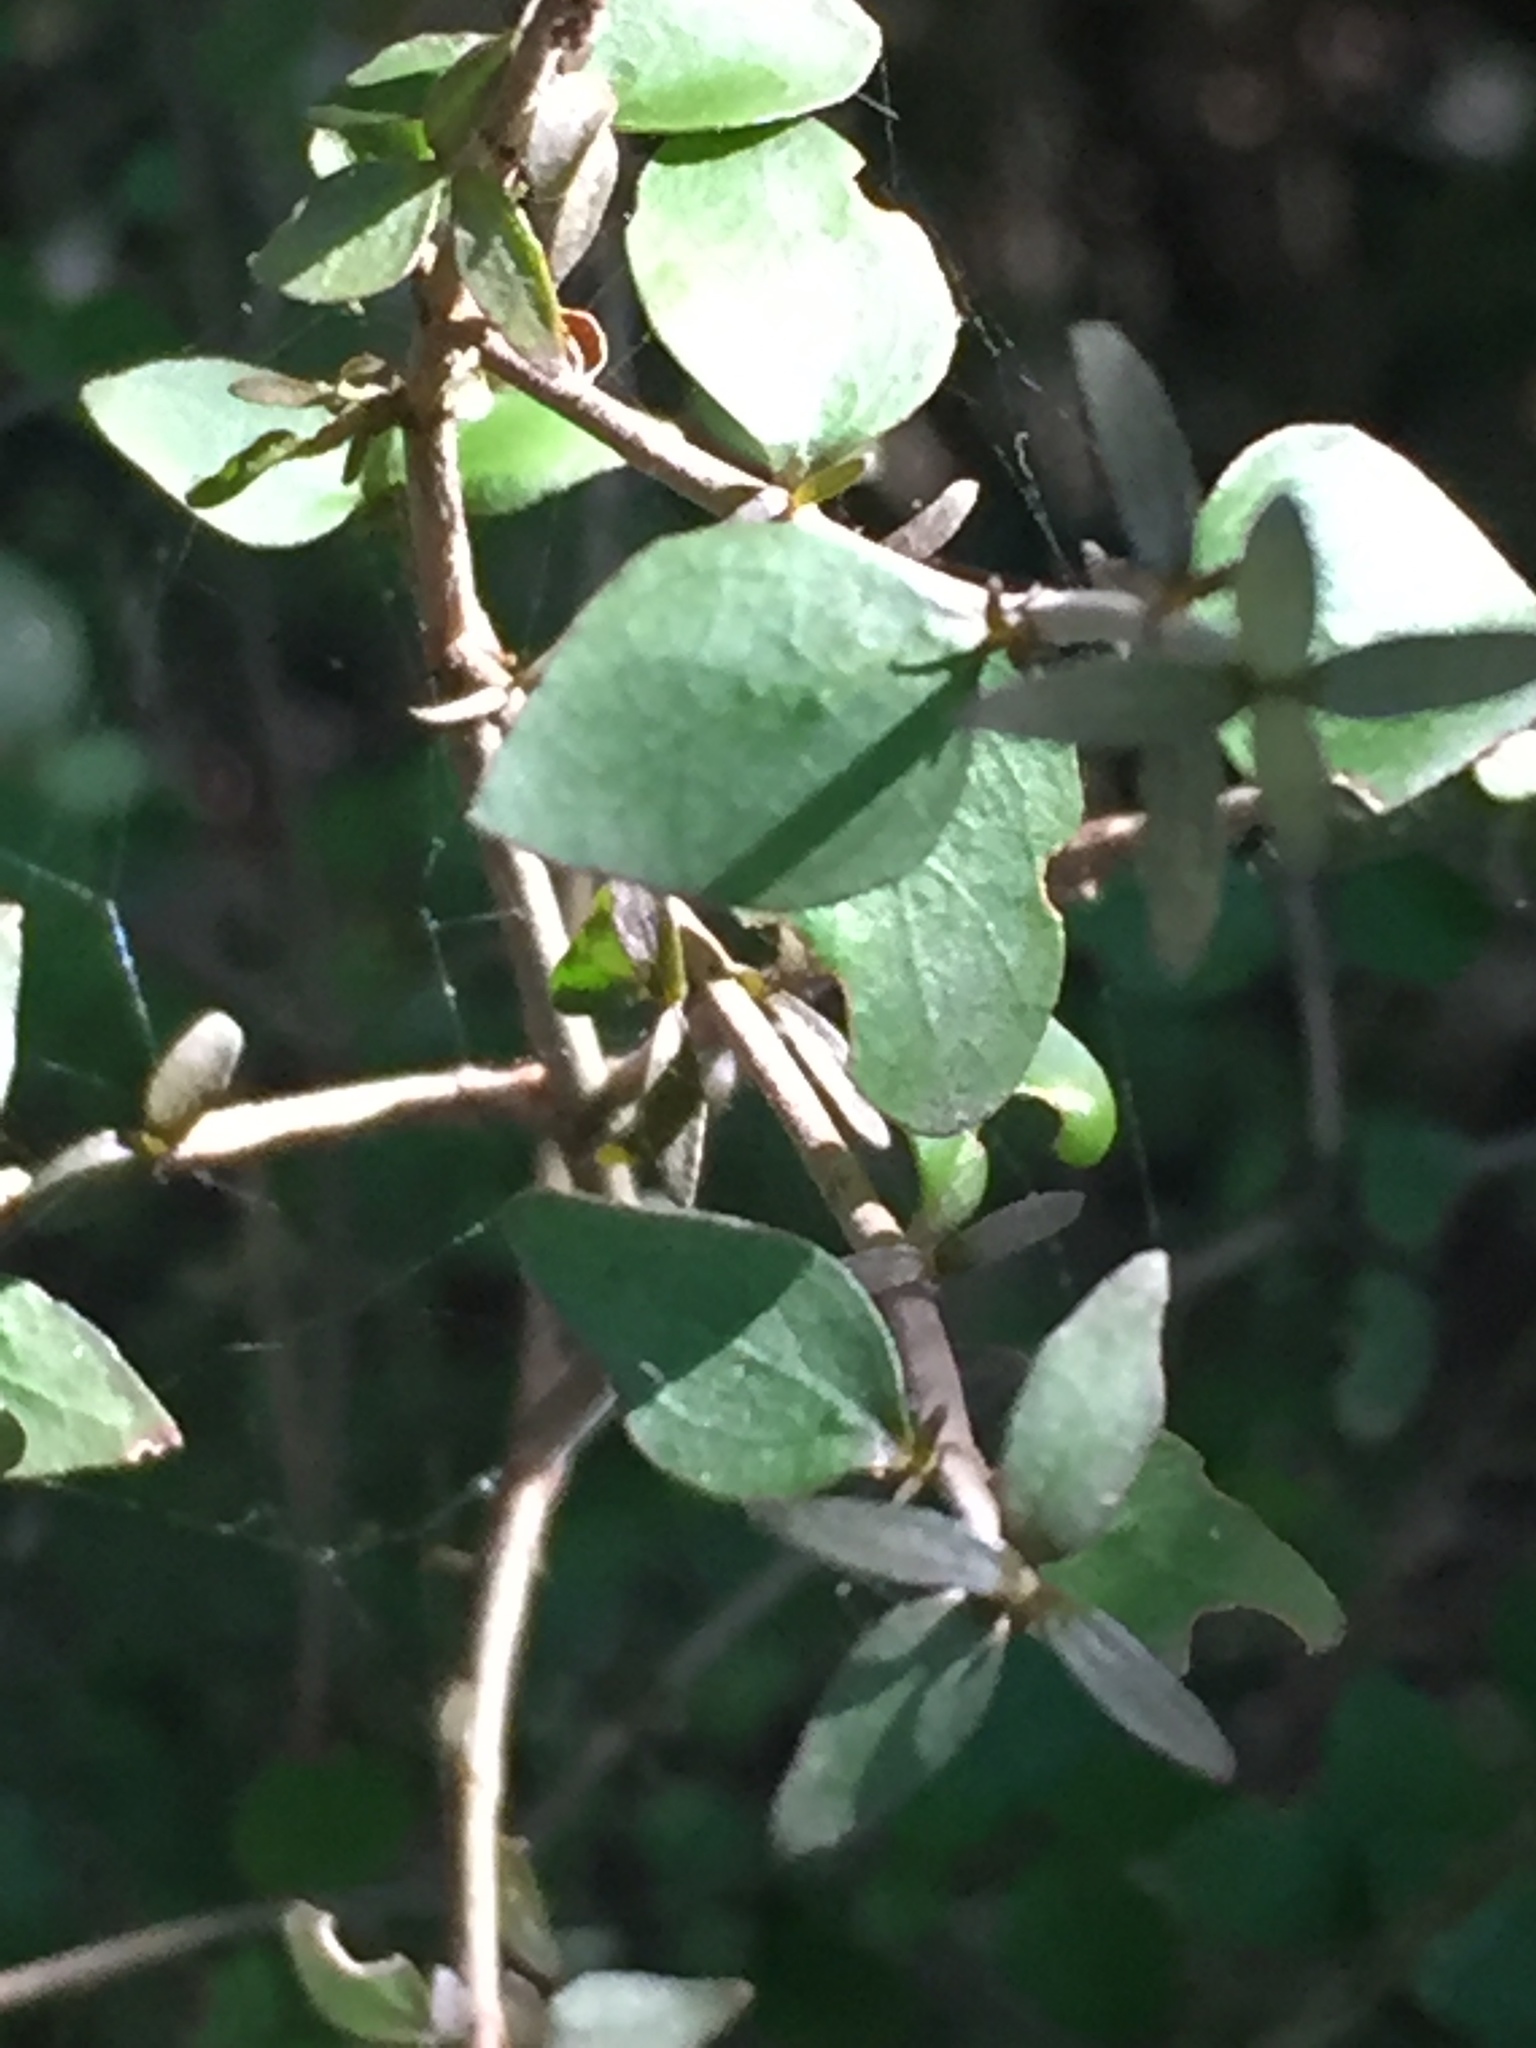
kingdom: Plantae
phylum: Tracheophyta
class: Magnoliopsida
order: Gentianales
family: Rubiaceae
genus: Coprosma
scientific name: Coprosma rhamnoides
